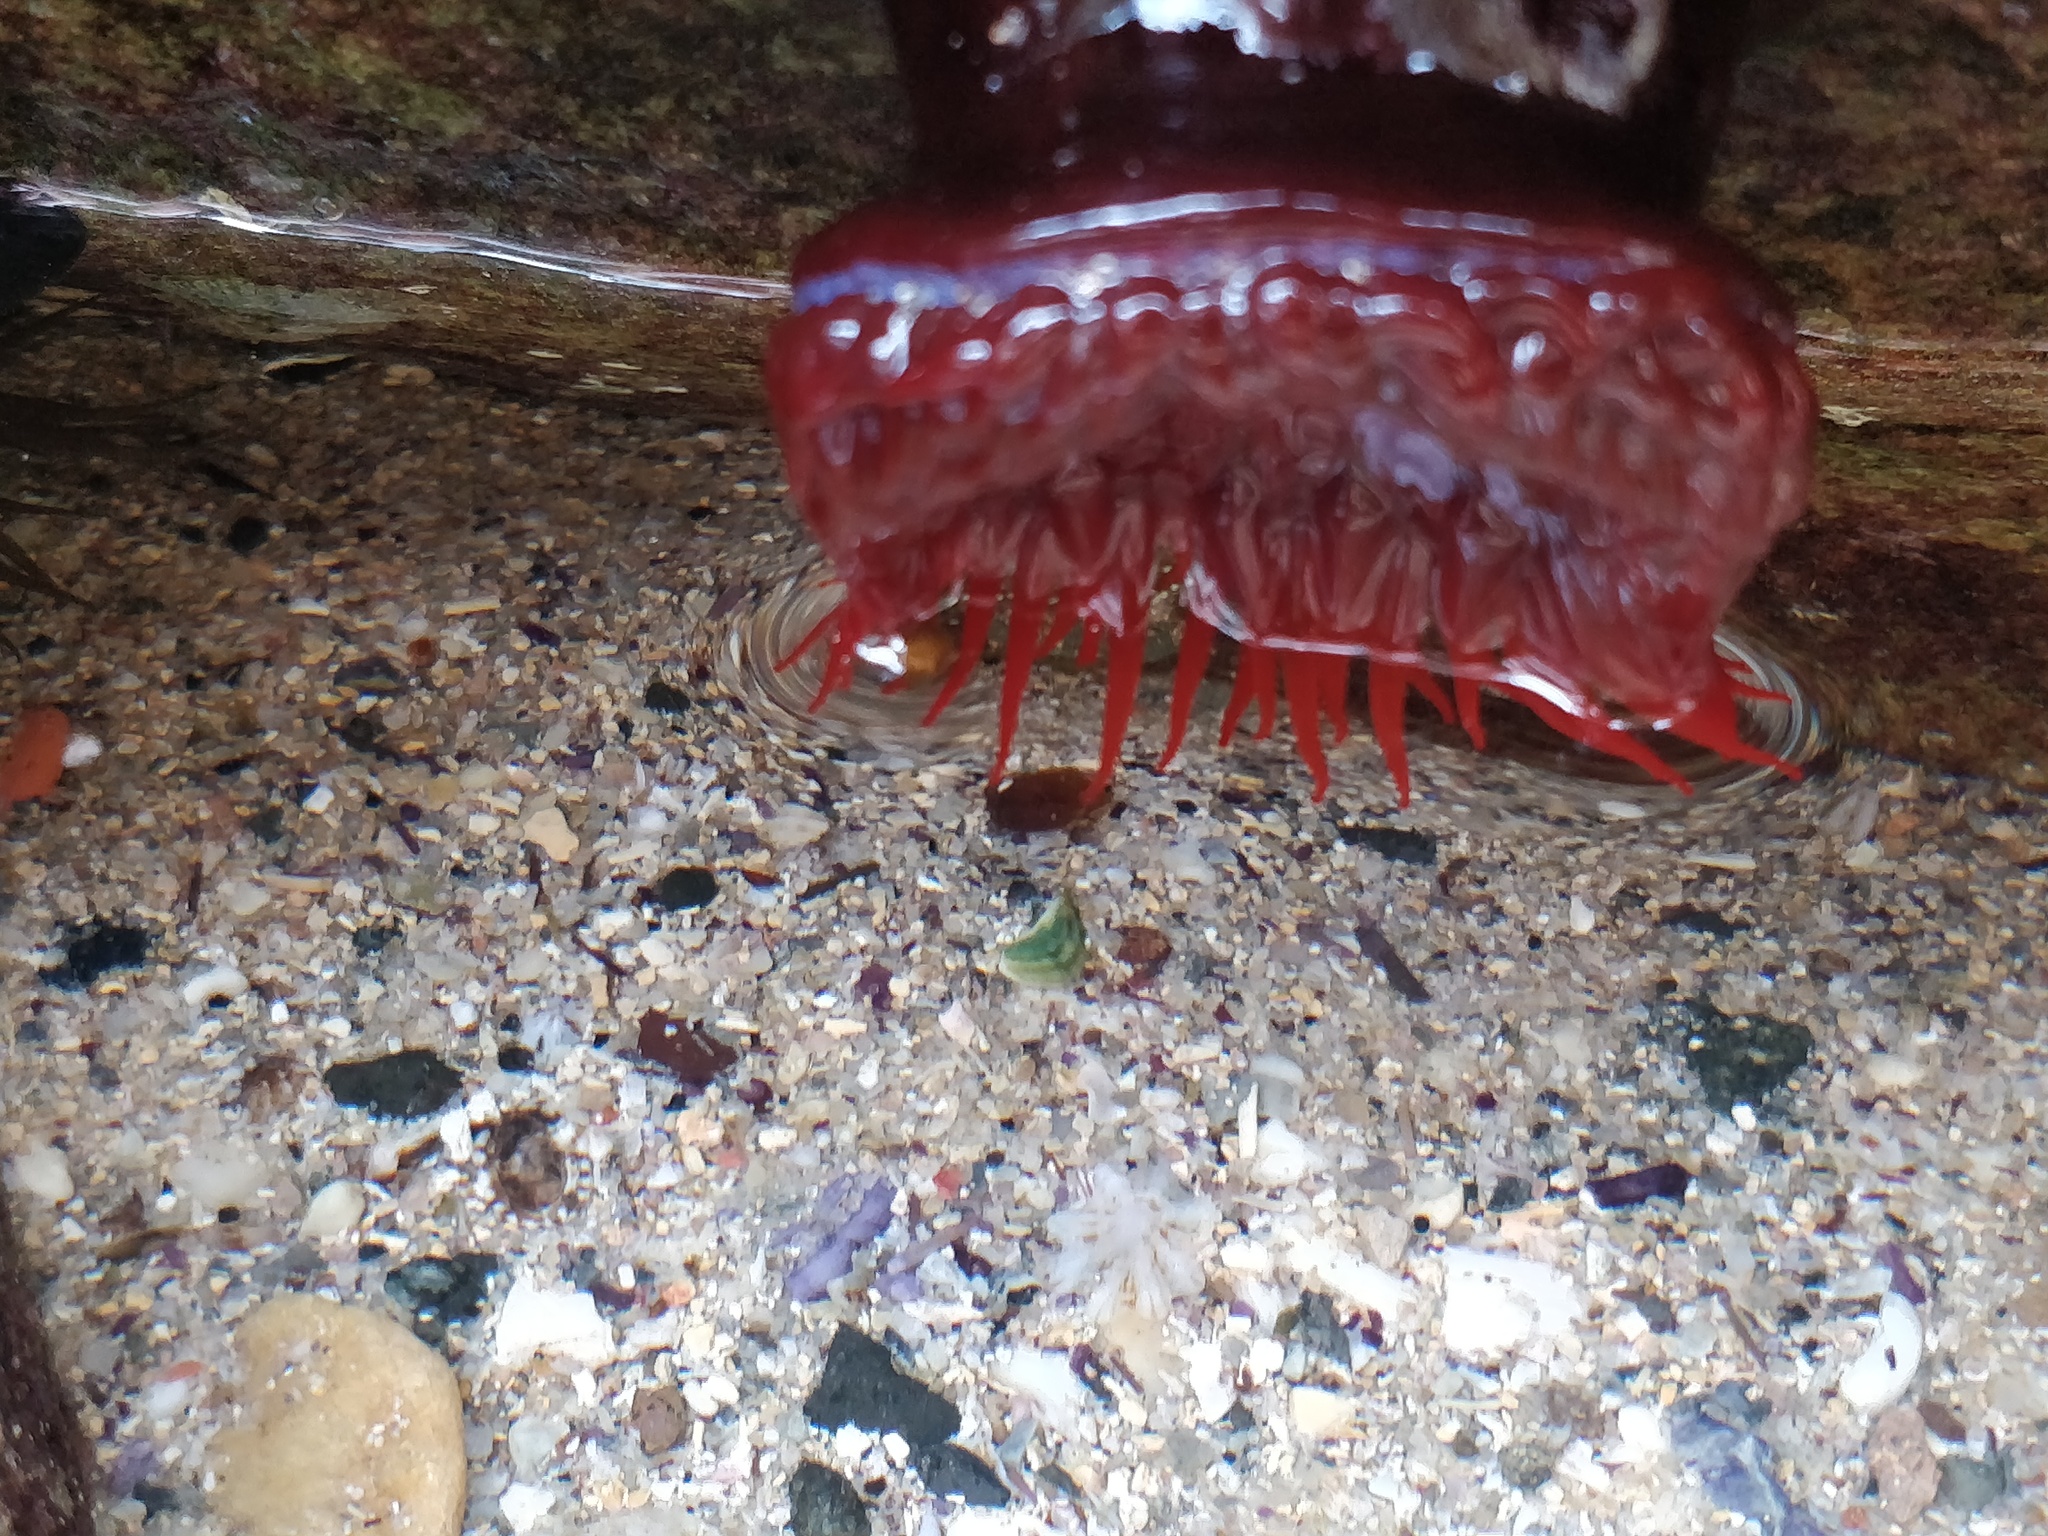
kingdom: Animalia
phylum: Cnidaria
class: Anthozoa
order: Actiniaria
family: Actiniidae
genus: Actinia
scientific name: Actinia tenebrosa
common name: Waratah anemone
